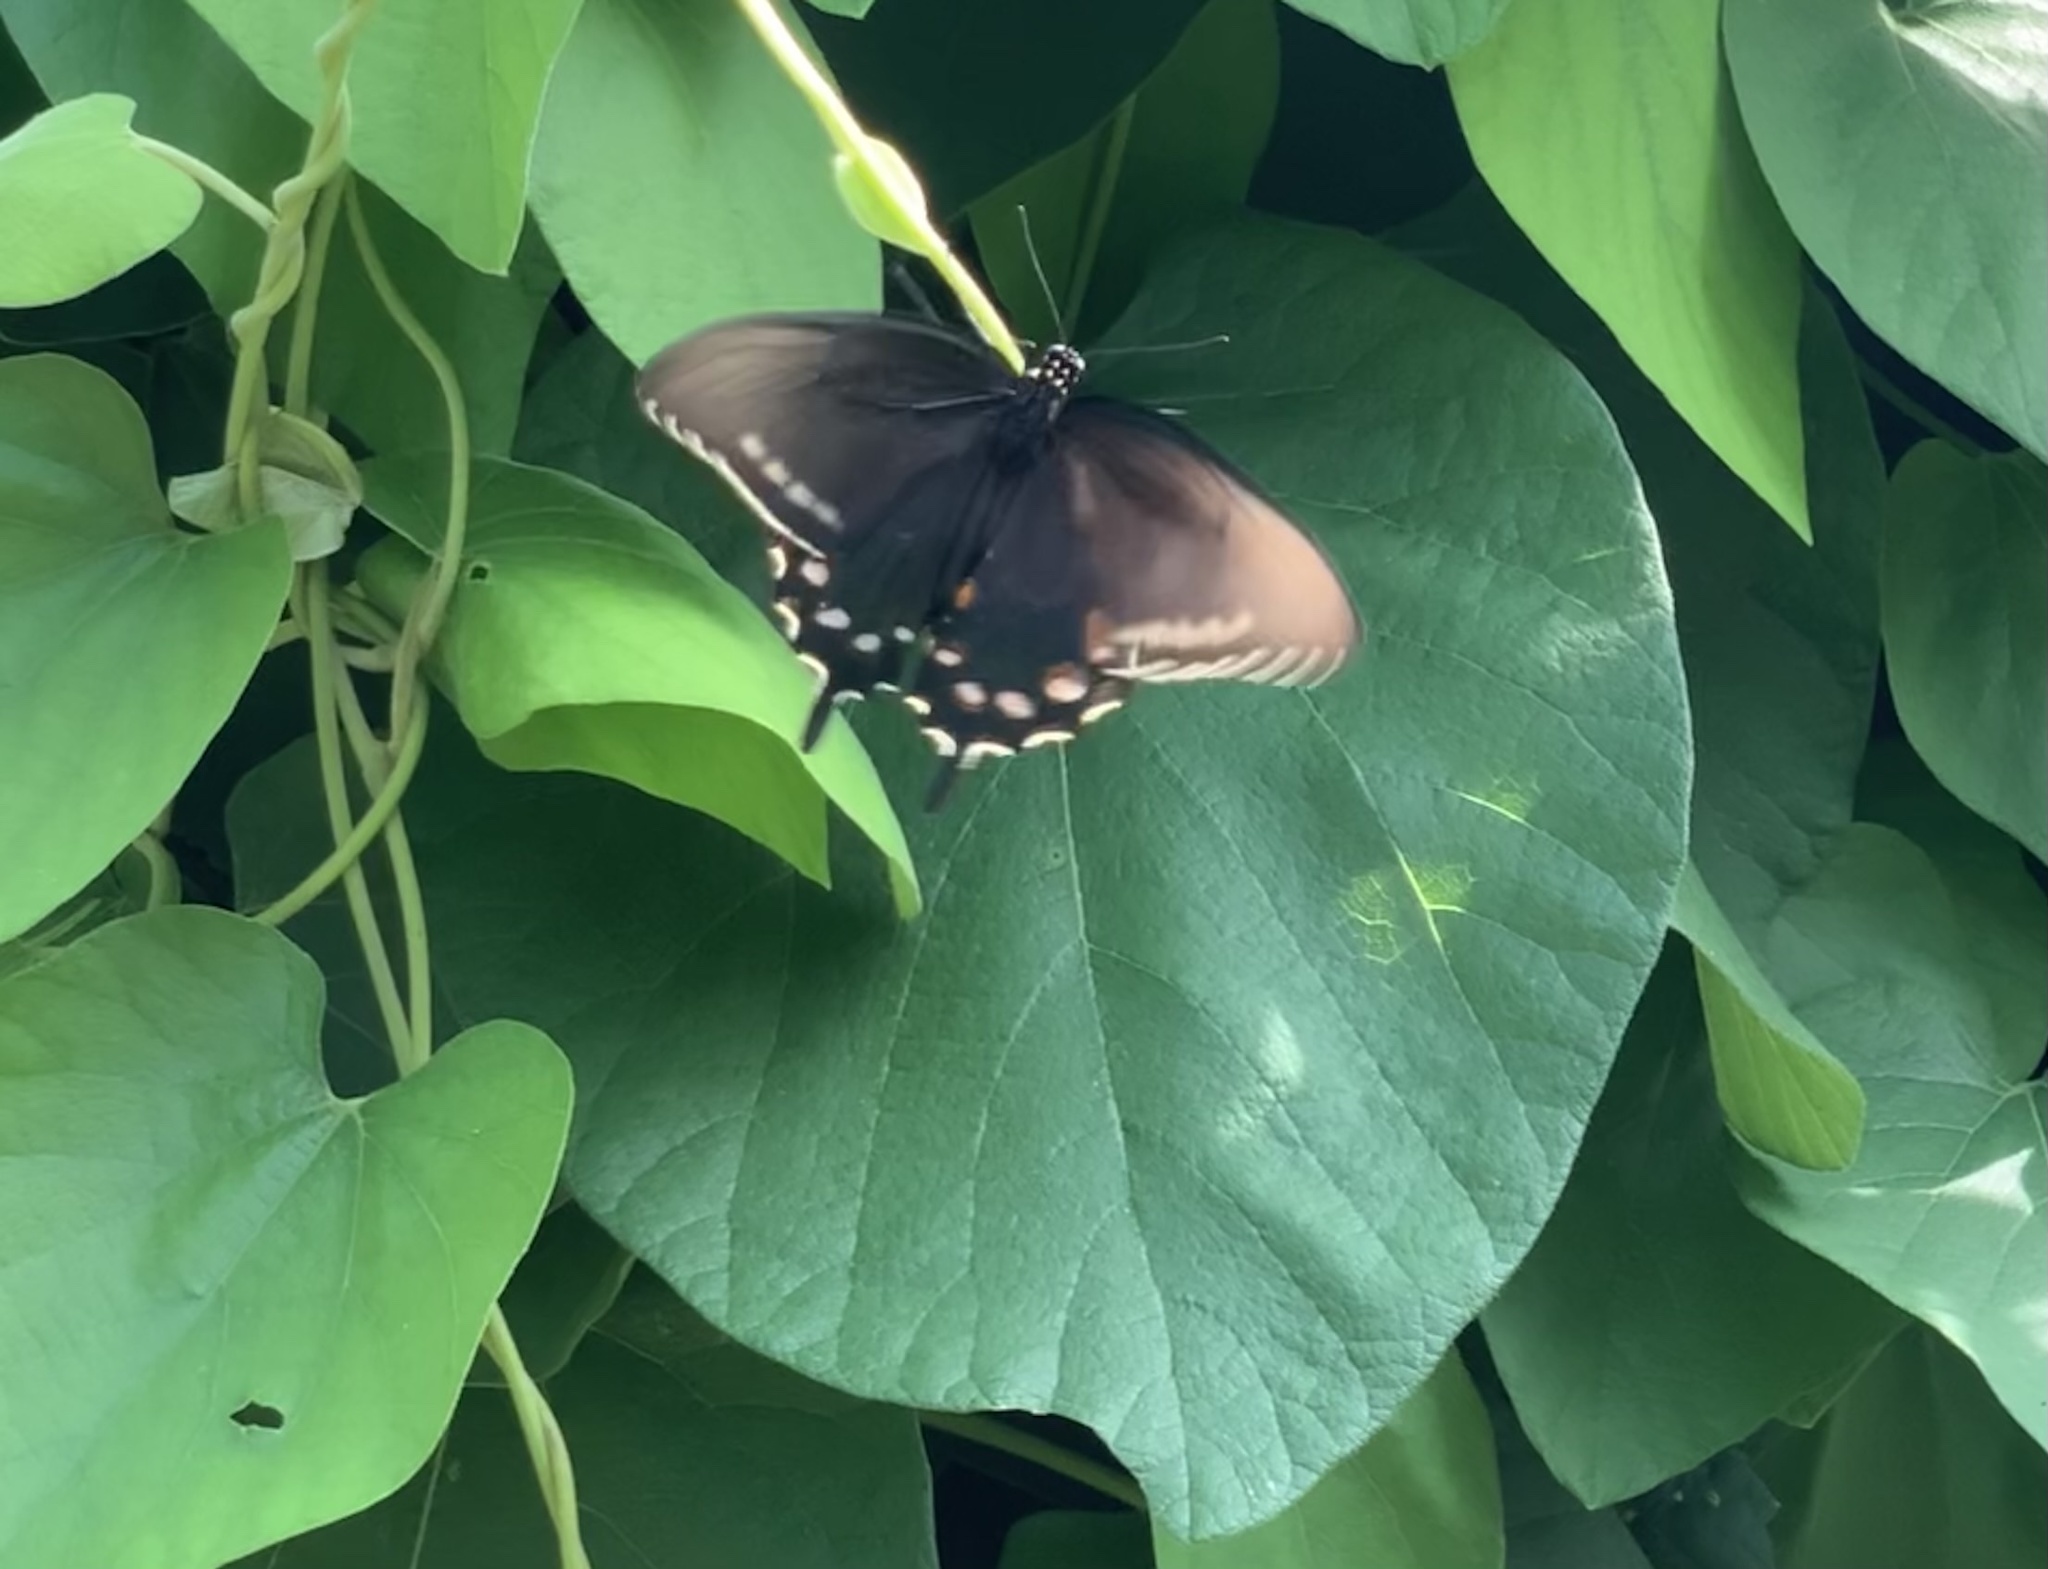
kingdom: Animalia
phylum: Arthropoda
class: Insecta
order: Lepidoptera
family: Papilionidae
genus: Battus
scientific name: Battus philenor
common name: Pipevine swallowtail
